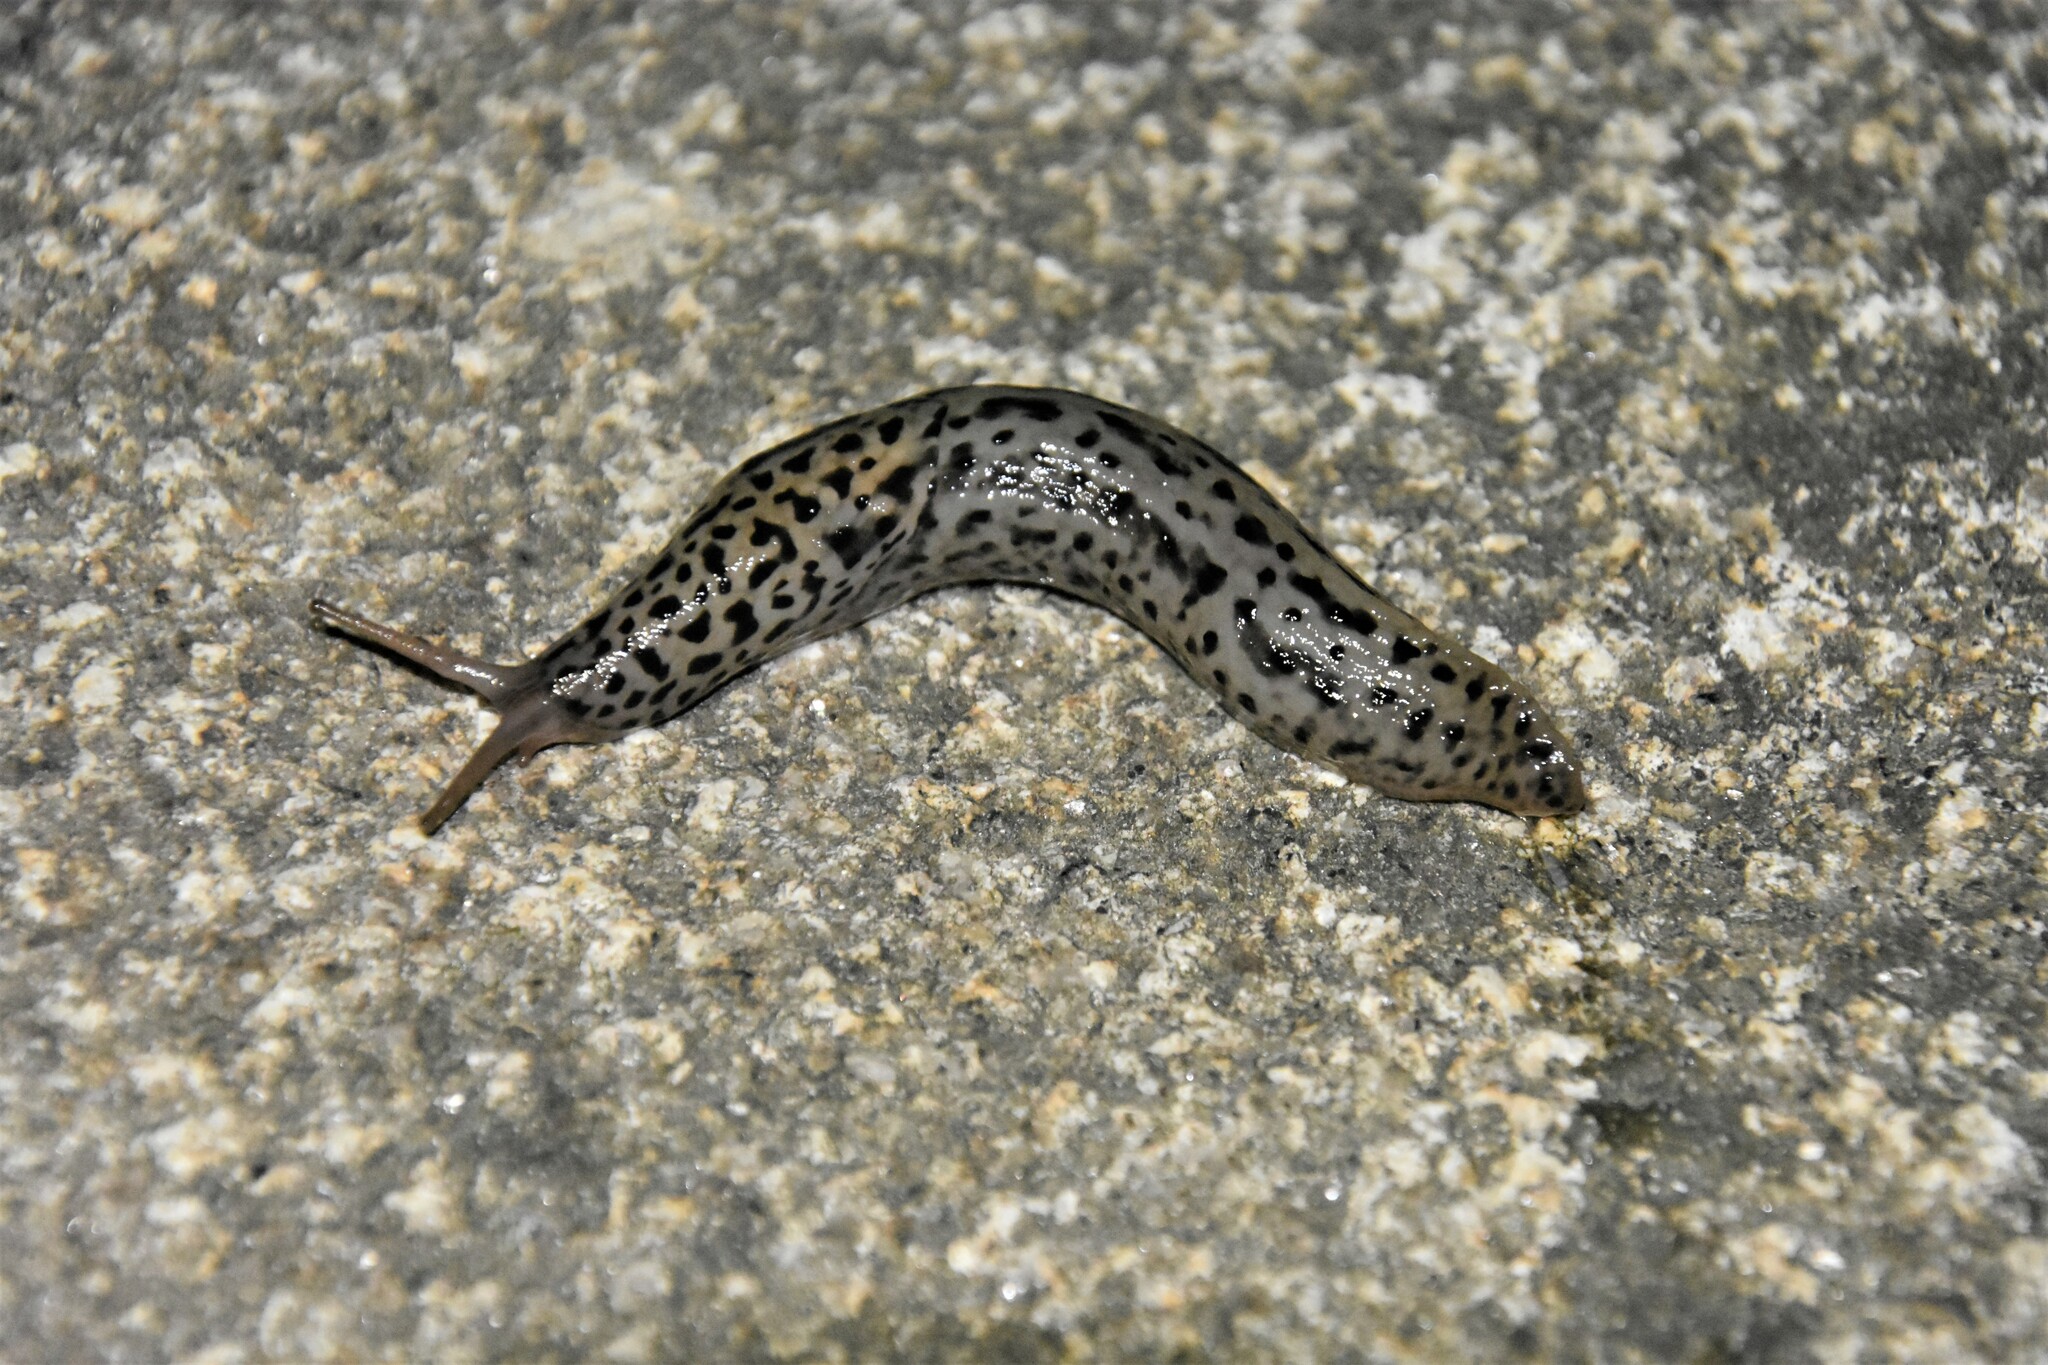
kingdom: Animalia
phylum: Mollusca
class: Gastropoda
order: Stylommatophora
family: Limacidae
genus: Limax
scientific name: Limax maximus
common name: Great grey slug
